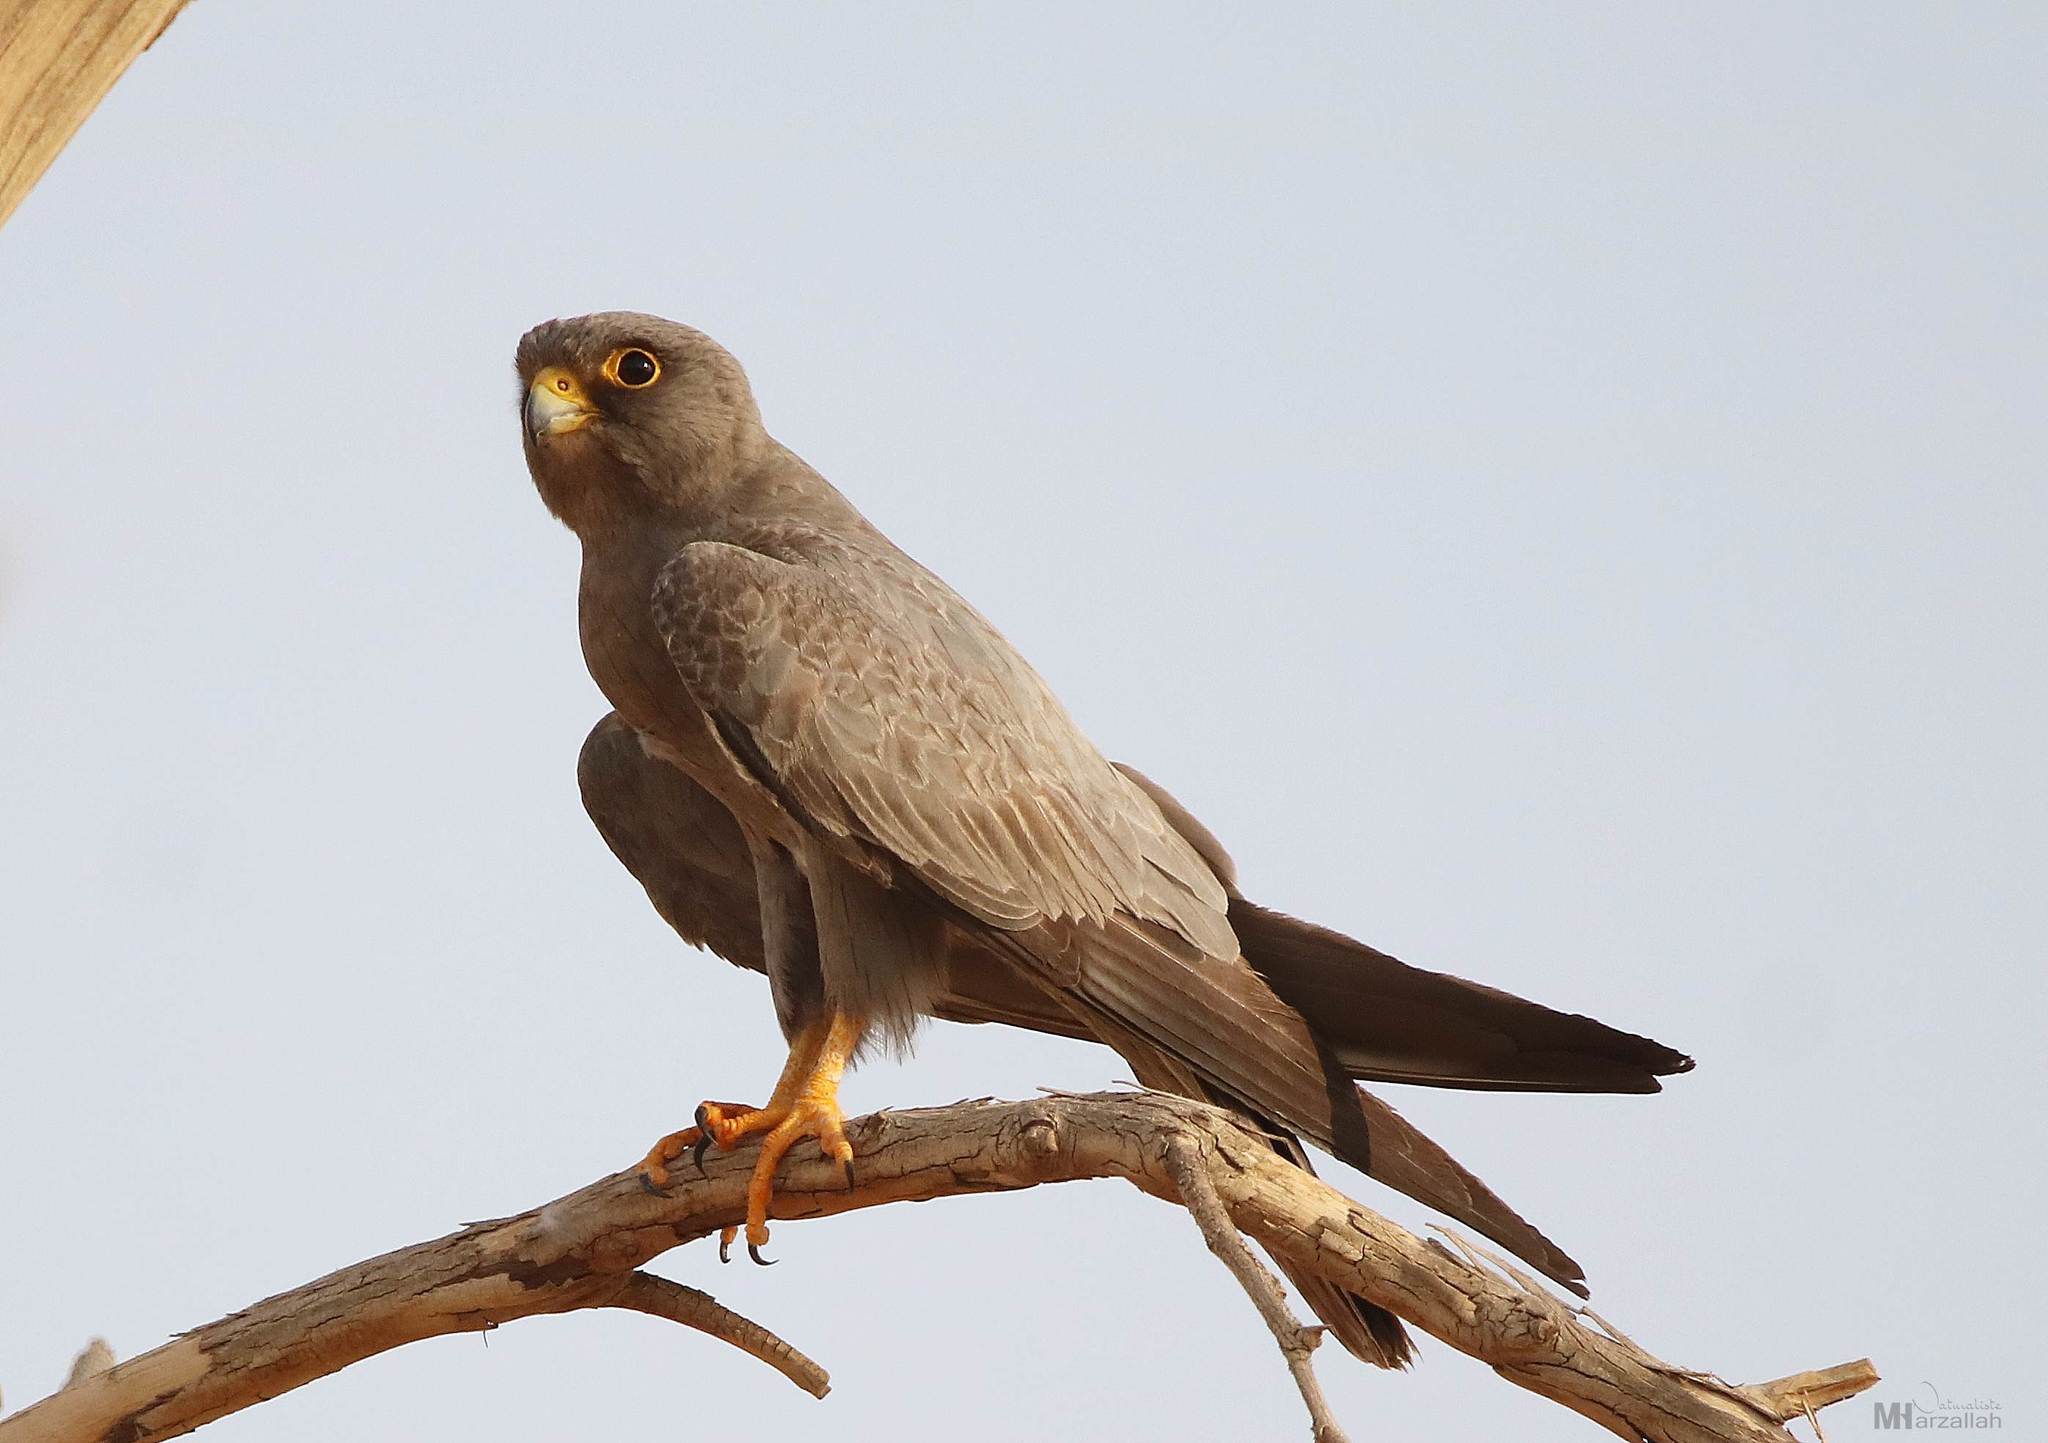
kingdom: Animalia
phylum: Chordata
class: Aves
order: Falconiformes
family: Falconidae
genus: Falco
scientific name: Falco concolor
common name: Sooty falcon
